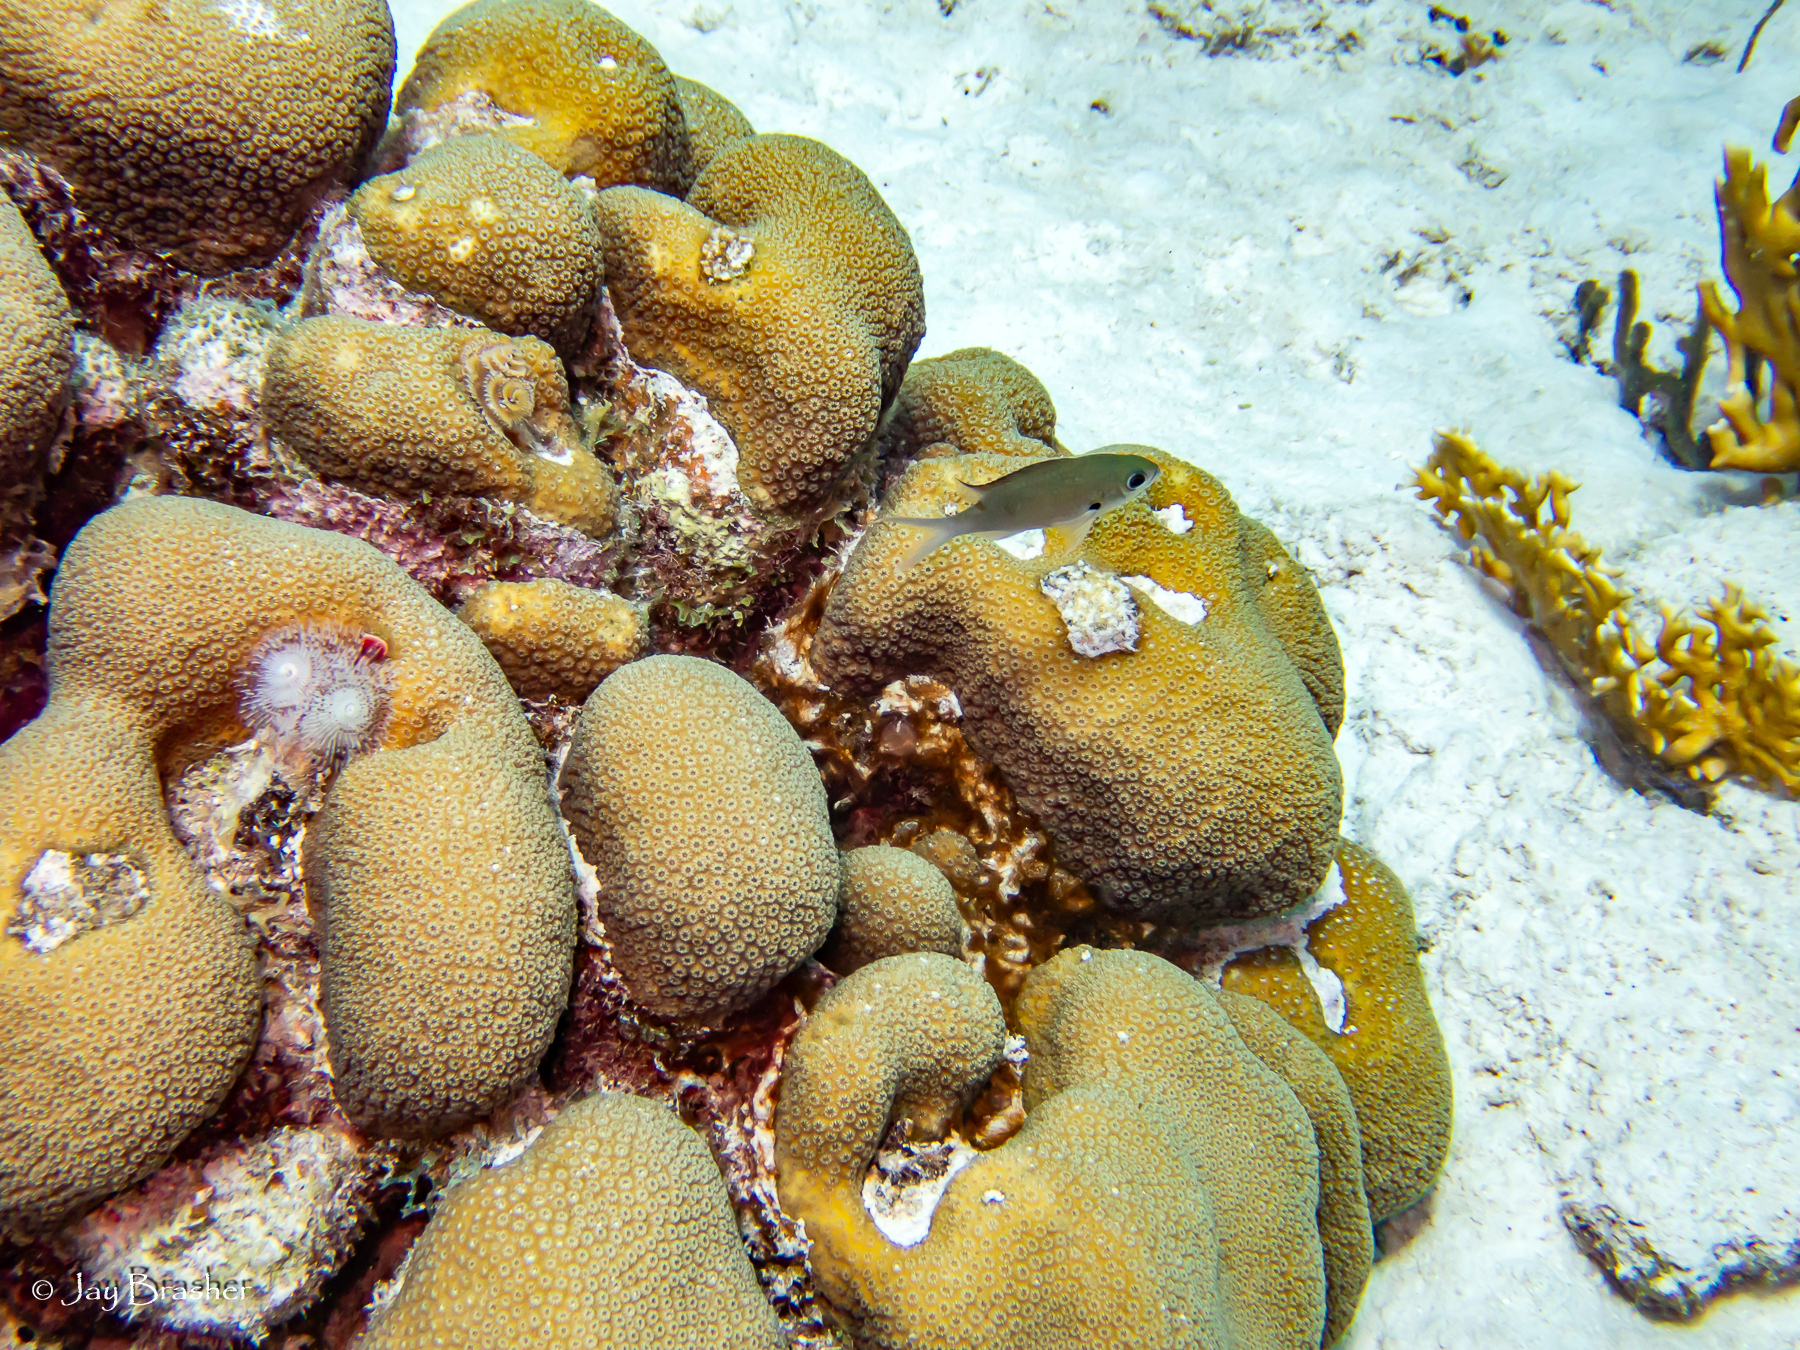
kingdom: Animalia
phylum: Chordata
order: Perciformes
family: Pomacentridae
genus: Chromis
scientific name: Chromis multilineata
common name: Brown chromis
